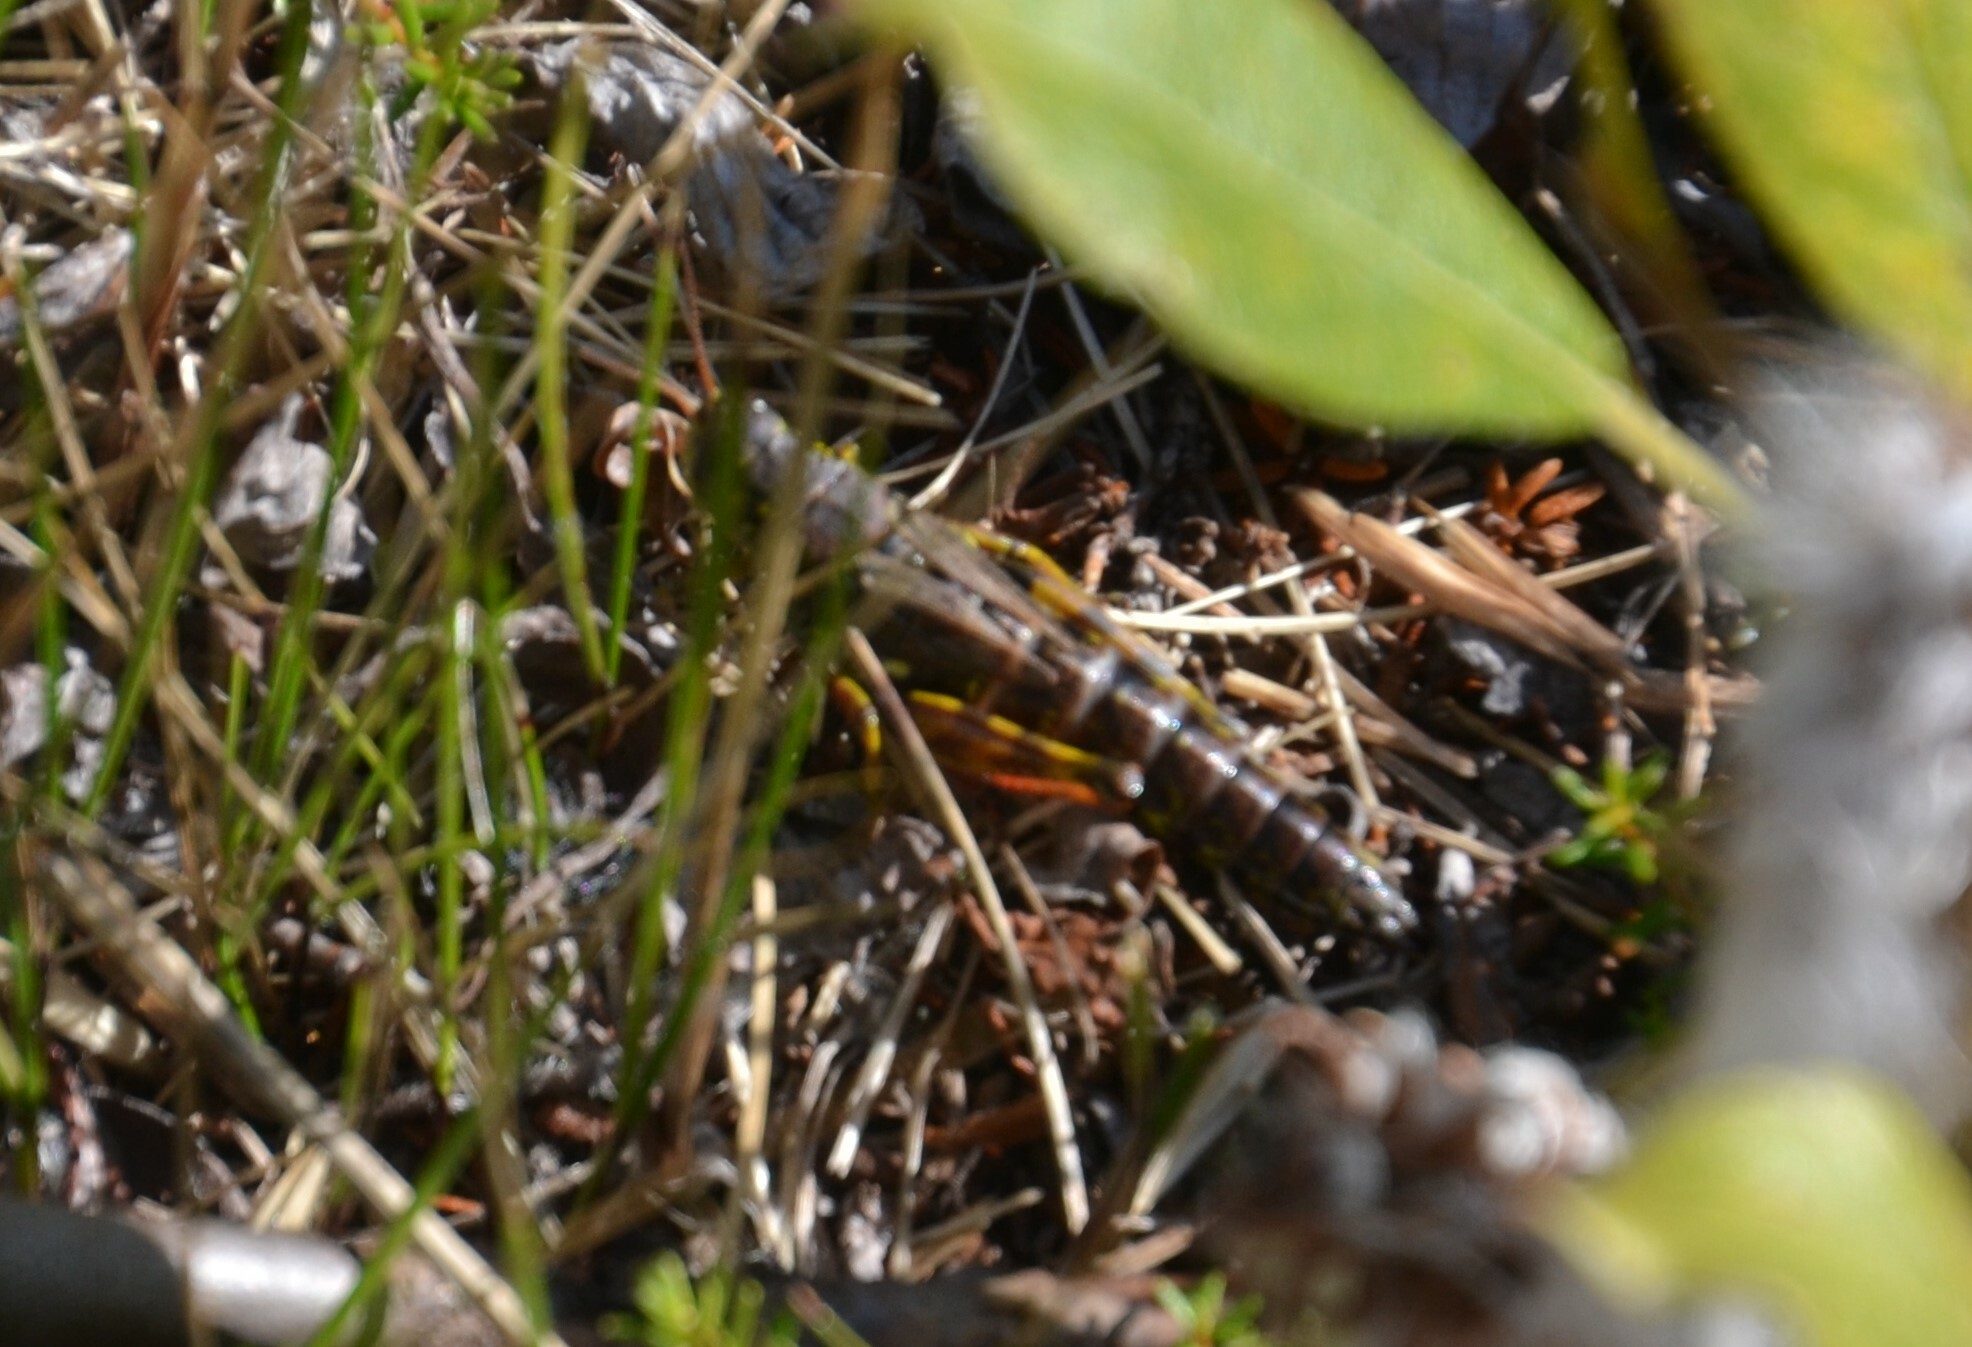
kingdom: Animalia
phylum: Arthropoda
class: Insecta
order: Orthoptera
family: Acrididae
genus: Bohemanella
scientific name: Bohemanella frigida
